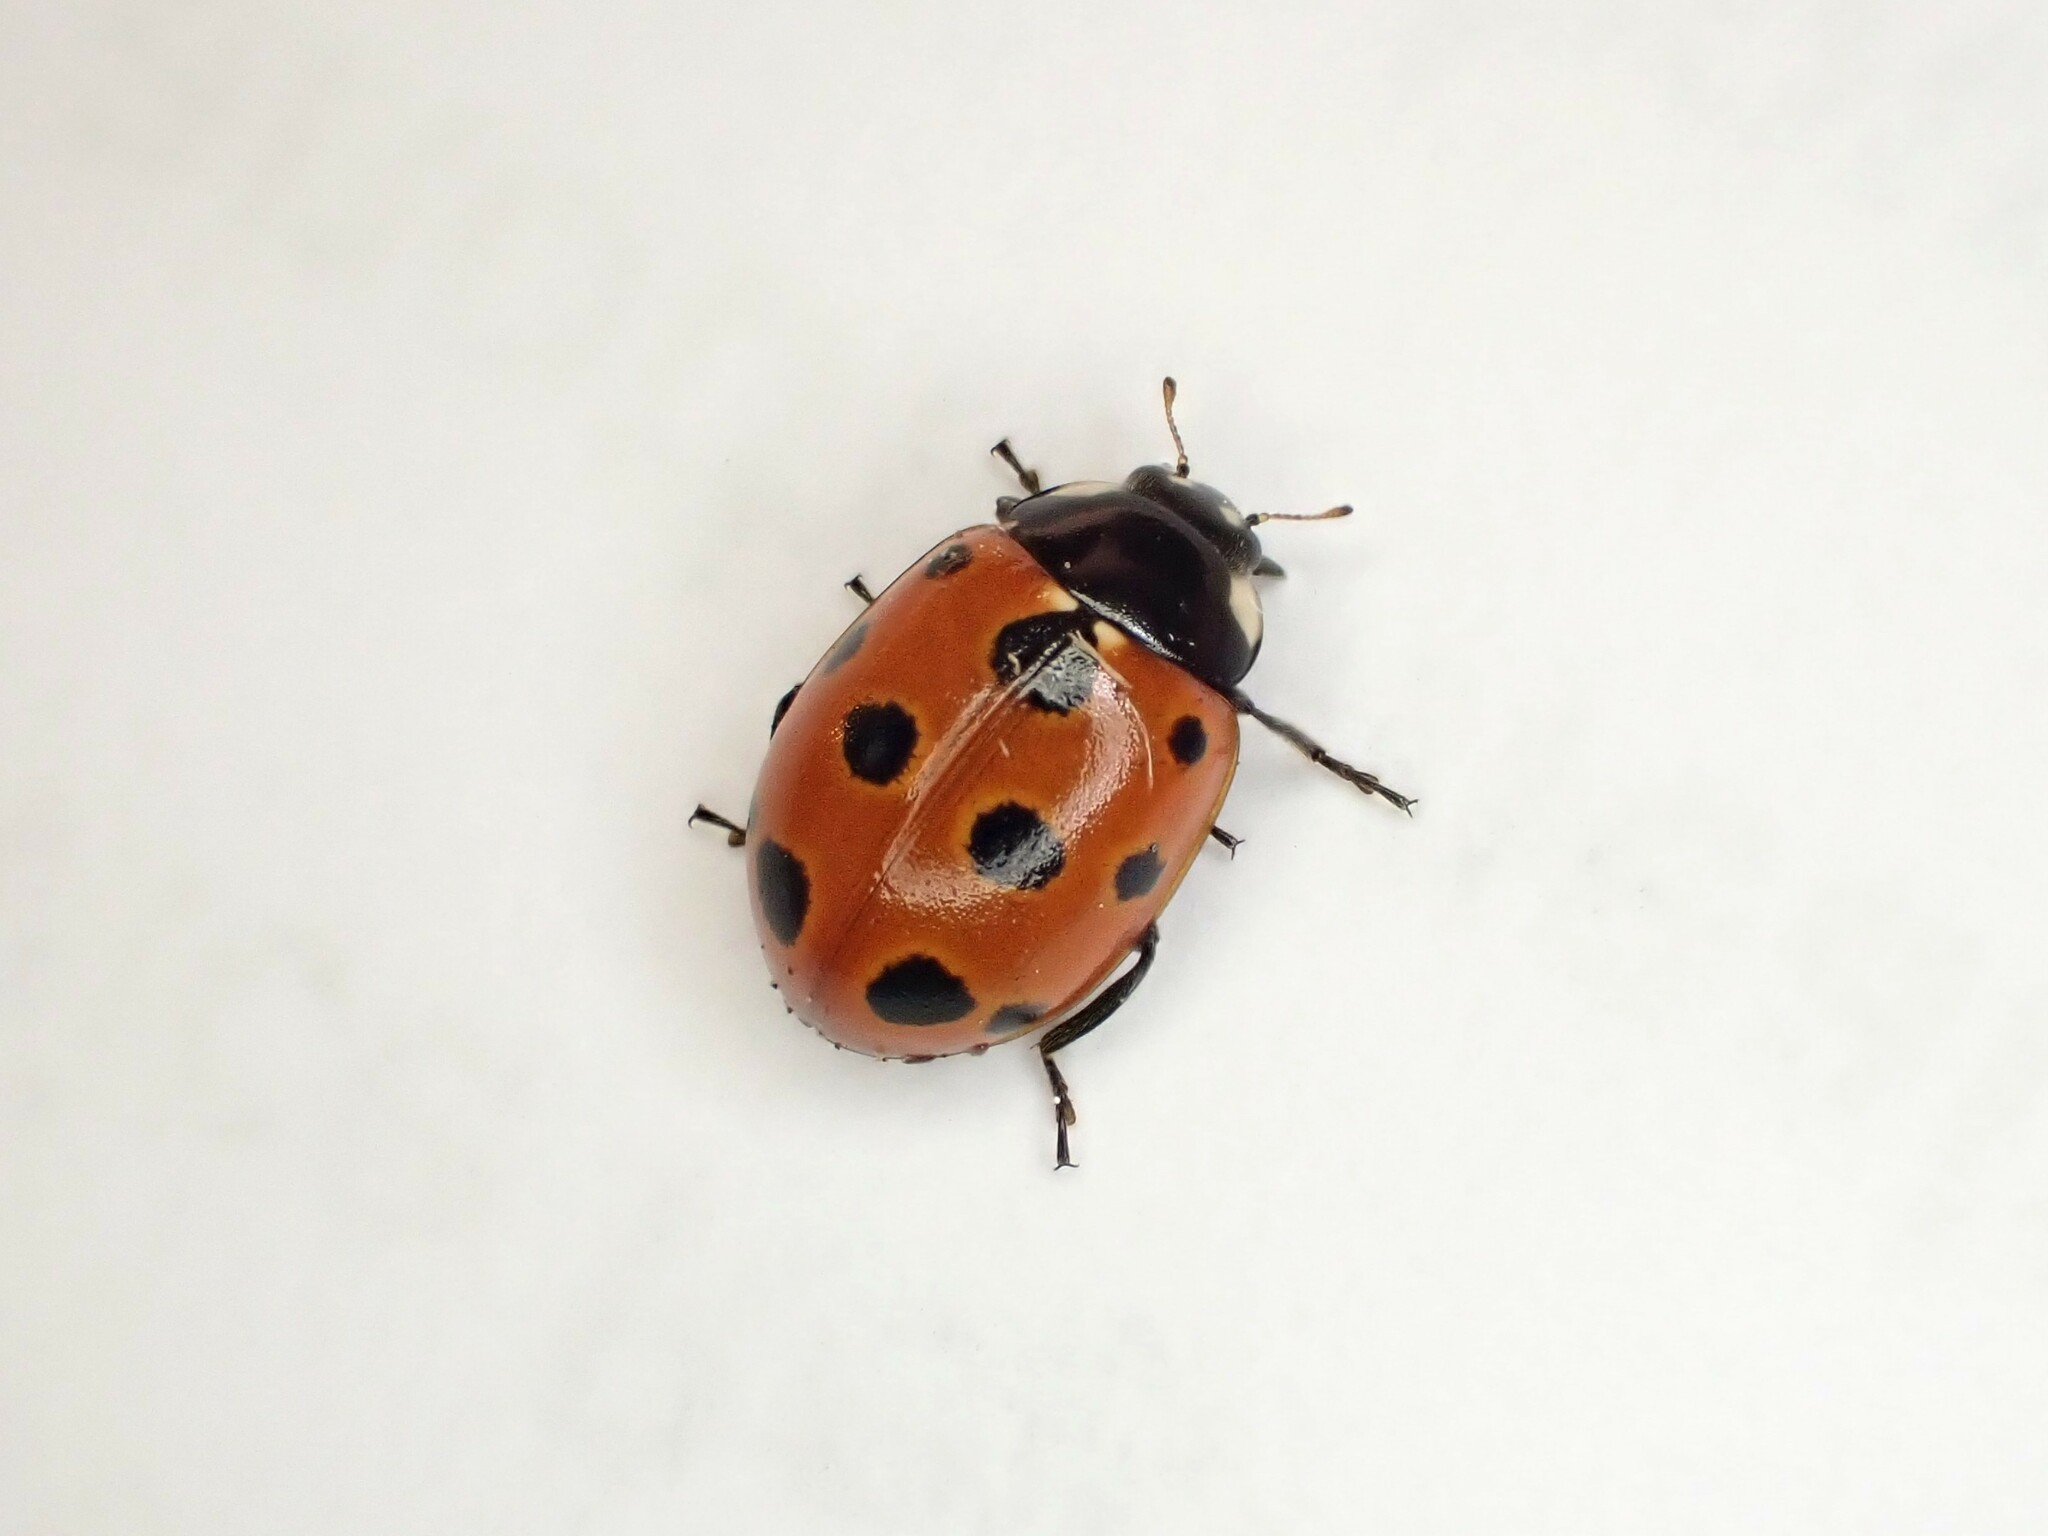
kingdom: Animalia
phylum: Arthropoda
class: Insecta
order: Coleoptera
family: Coccinellidae
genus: Coccinella
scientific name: Coccinella undecimpunctata
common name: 11-spot ladybird
